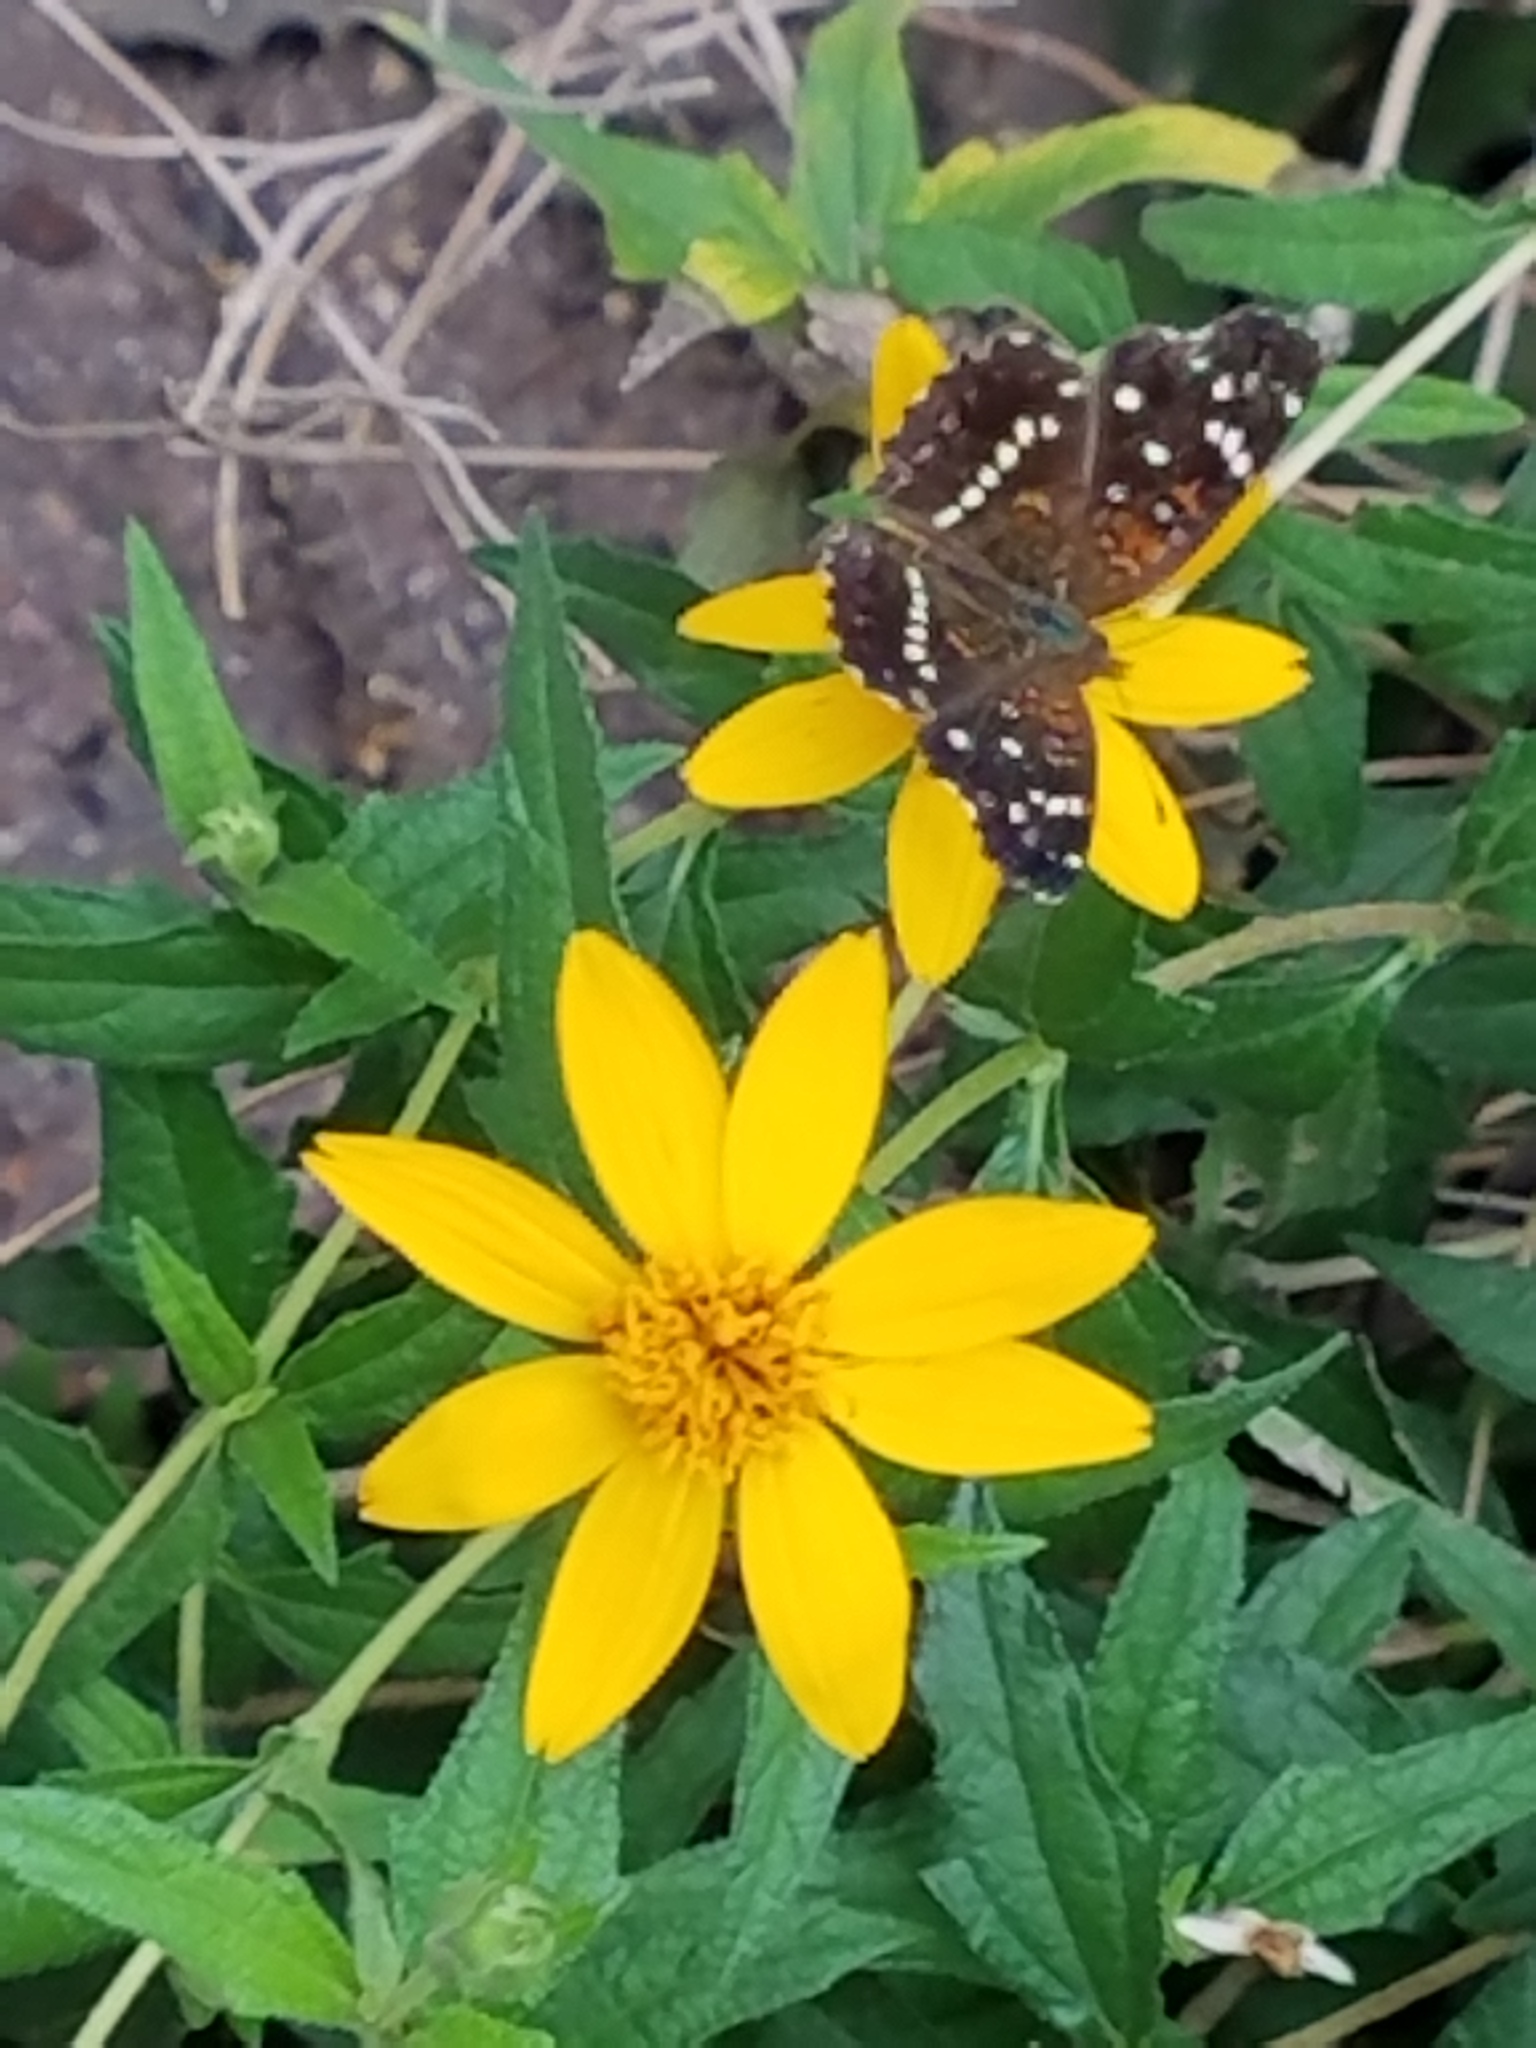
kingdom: Animalia
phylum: Arthropoda
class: Insecta
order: Lepidoptera
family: Nymphalidae
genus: Anthanassa
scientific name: Anthanassa texana
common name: Texan crescent
